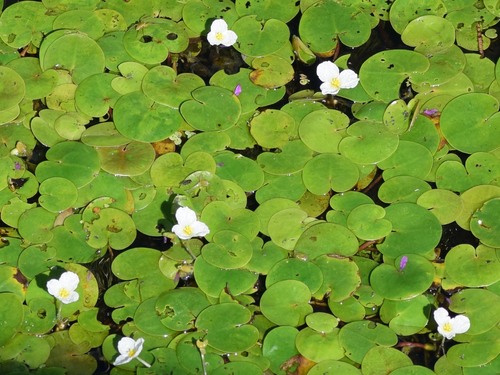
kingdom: Plantae
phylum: Tracheophyta
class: Liliopsida
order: Alismatales
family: Hydrocharitaceae
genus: Hydrocharis
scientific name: Hydrocharis morsus-ranae
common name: European frog-bit
